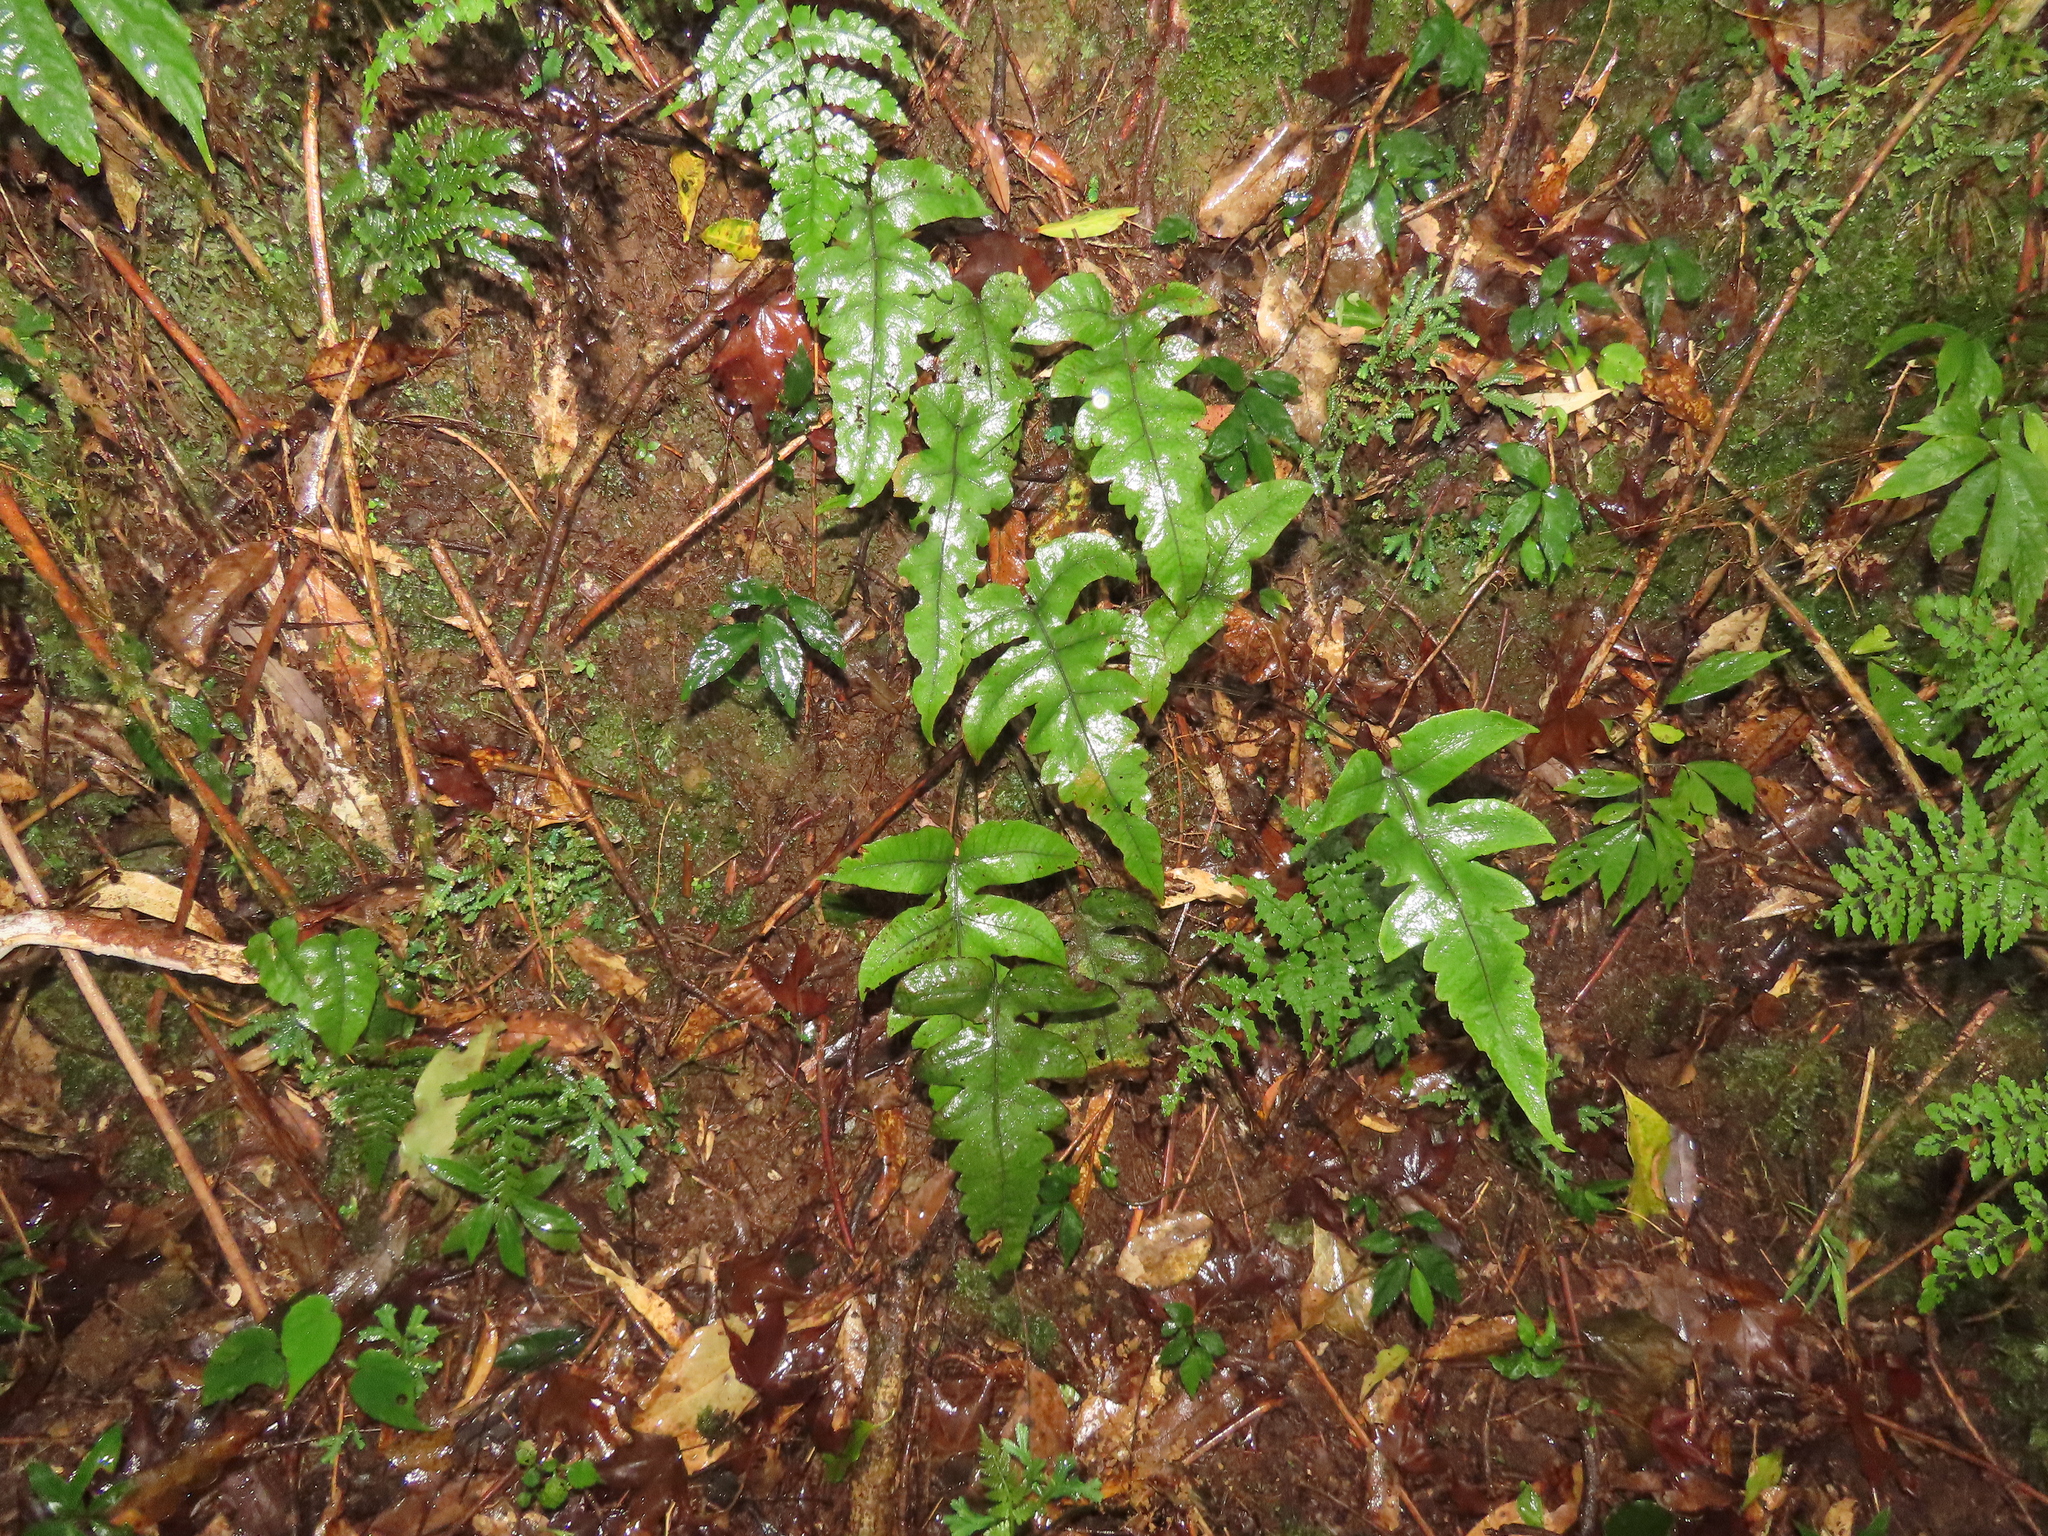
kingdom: Plantae
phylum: Tracheophyta
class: Polypodiopsida
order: Polypodiales
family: Thelypteridaceae
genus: Stegnogramma
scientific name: Stegnogramma wilfordii
